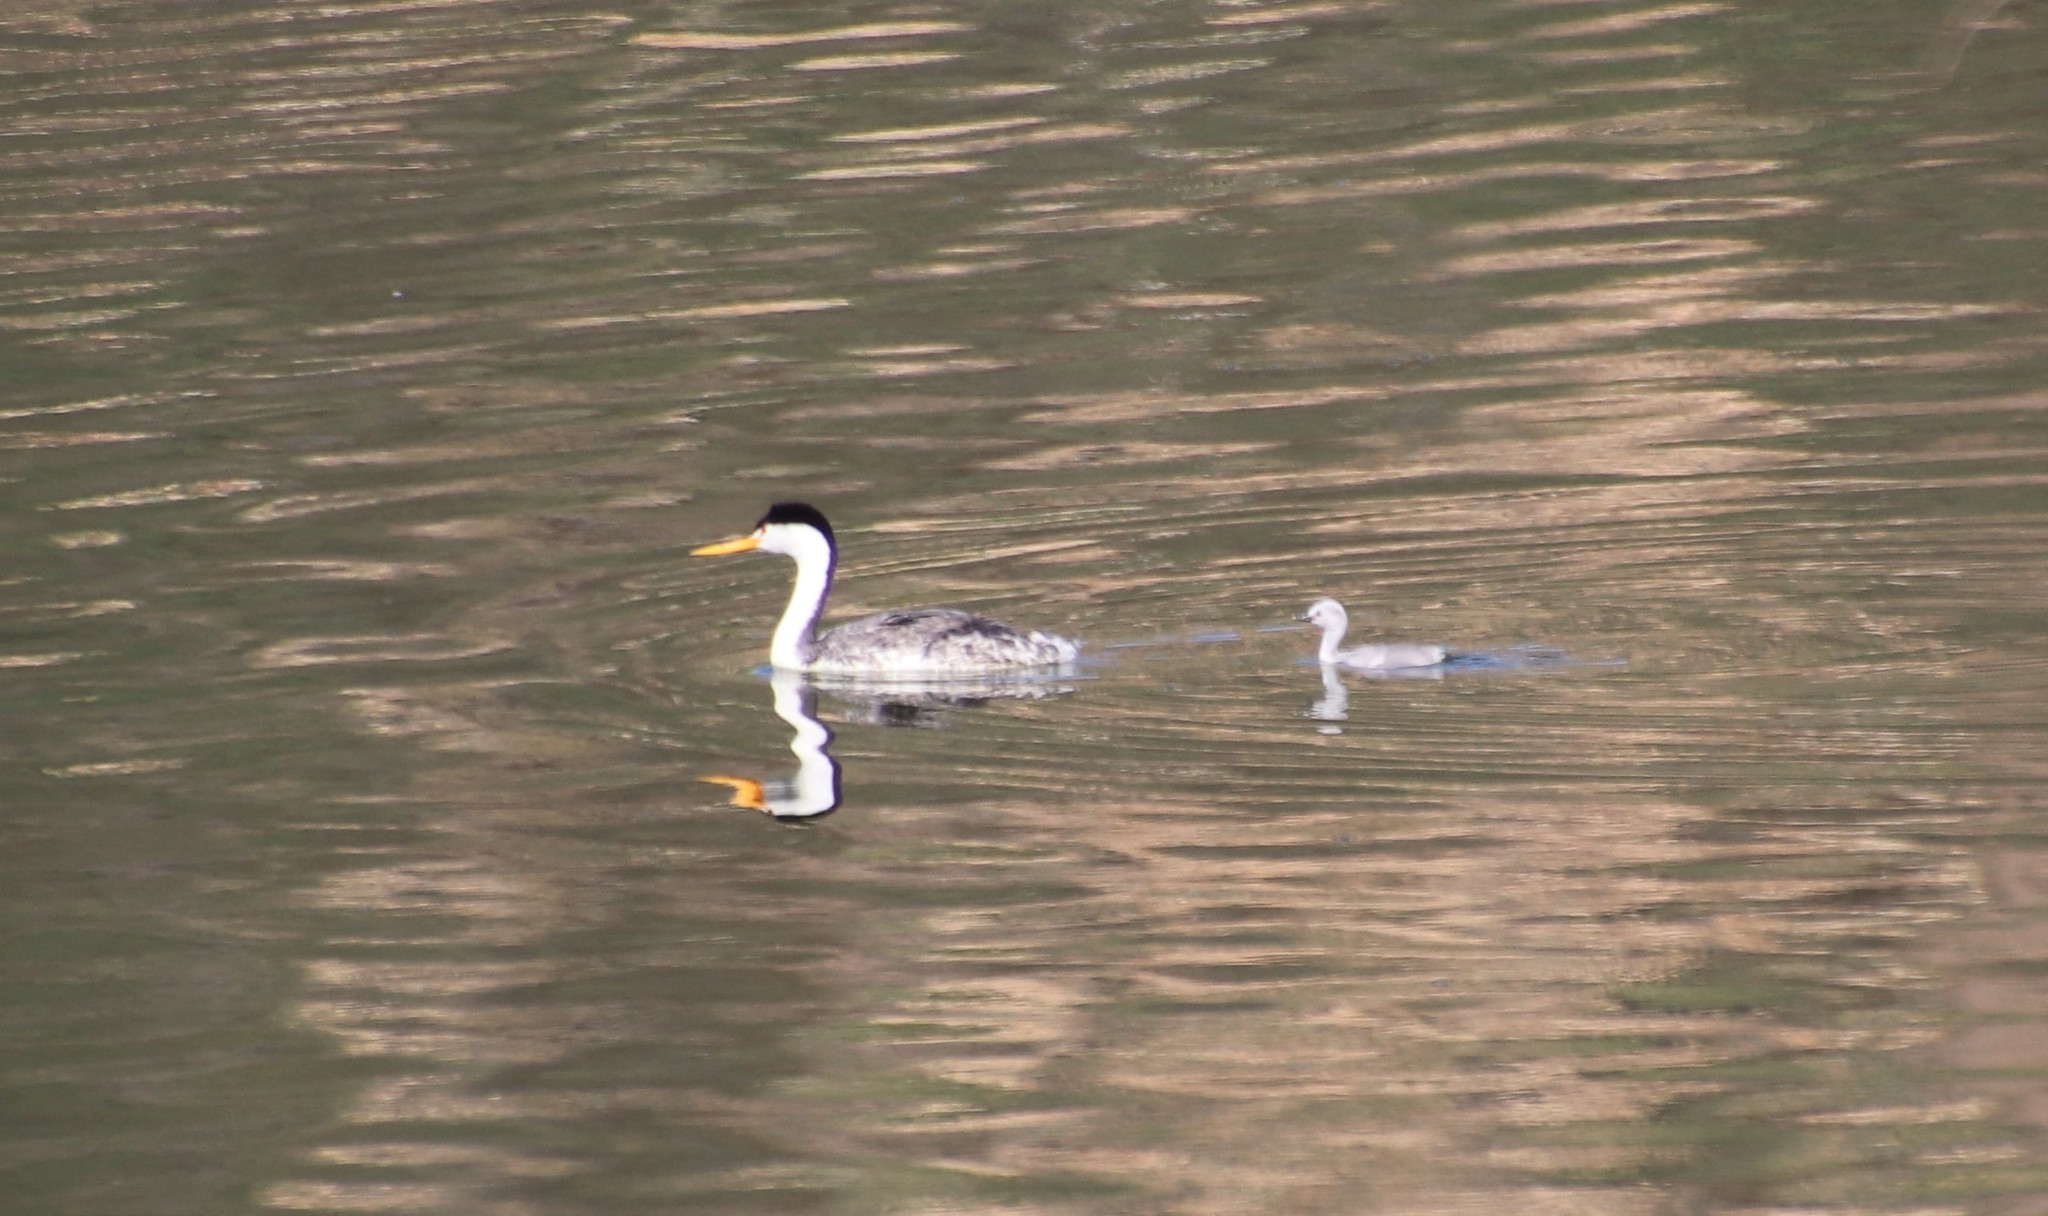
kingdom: Animalia
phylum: Chordata
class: Aves
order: Podicipediformes
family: Podicipedidae
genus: Aechmophorus
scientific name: Aechmophorus clarkii
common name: Clark's grebe
